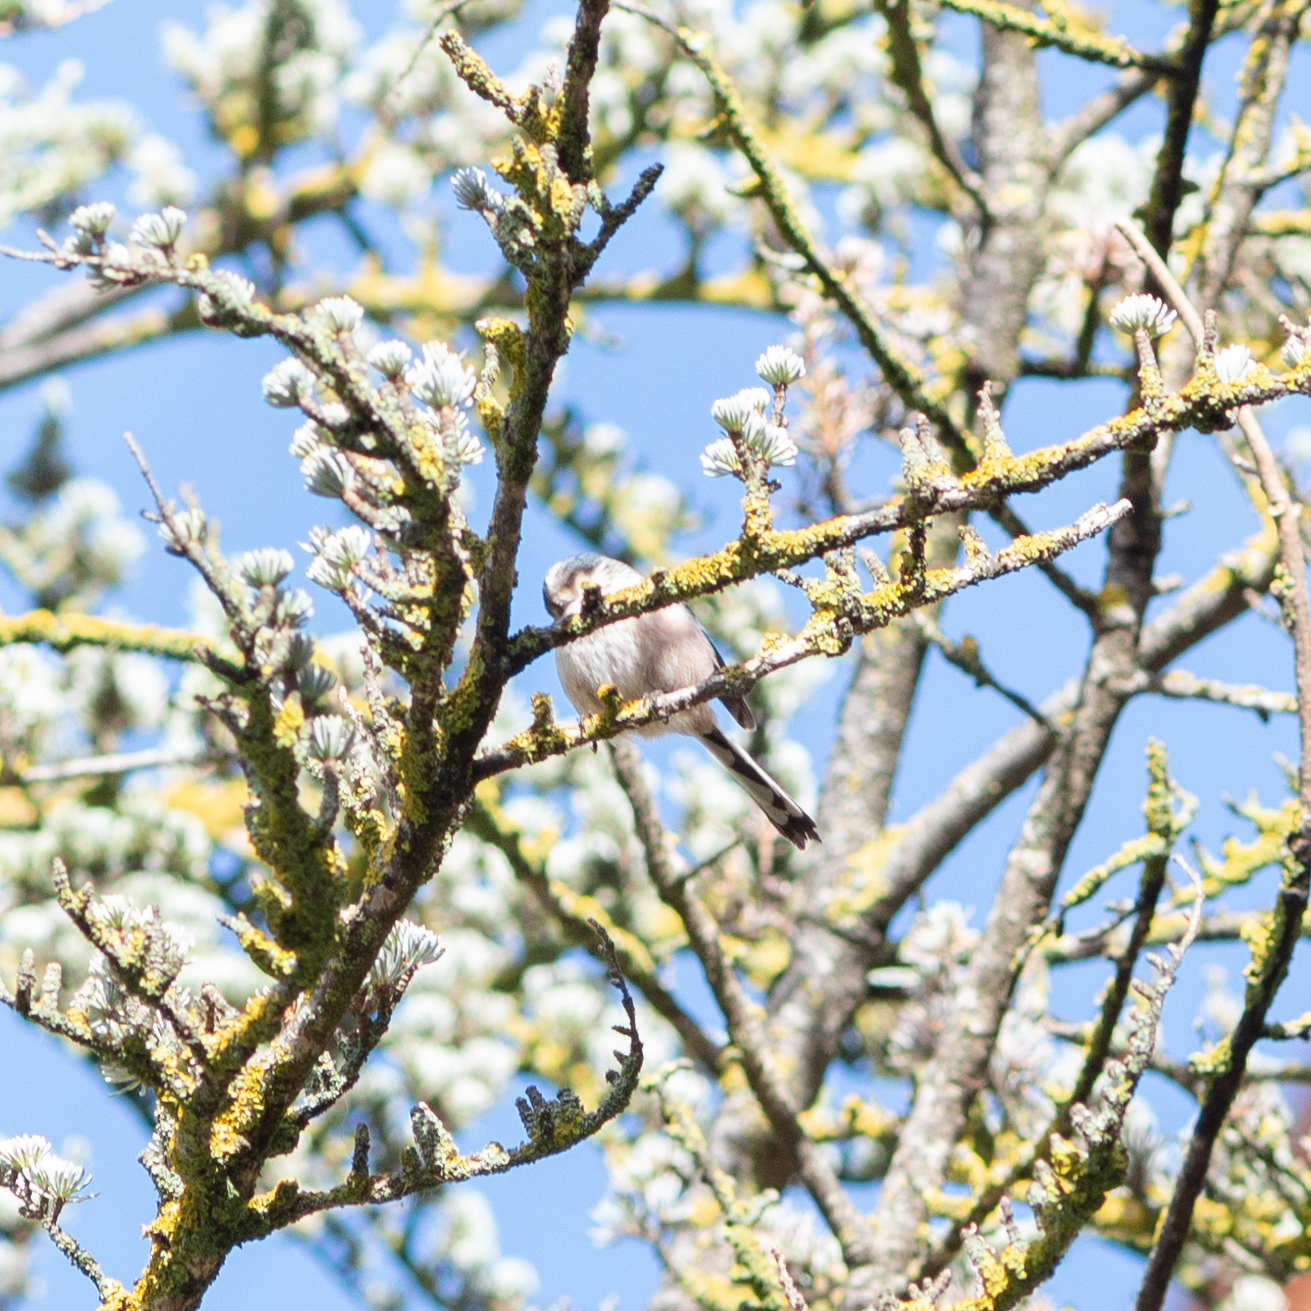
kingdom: Animalia
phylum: Chordata
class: Aves
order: Passeriformes
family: Aegithalidae
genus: Aegithalos
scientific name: Aegithalos caudatus
